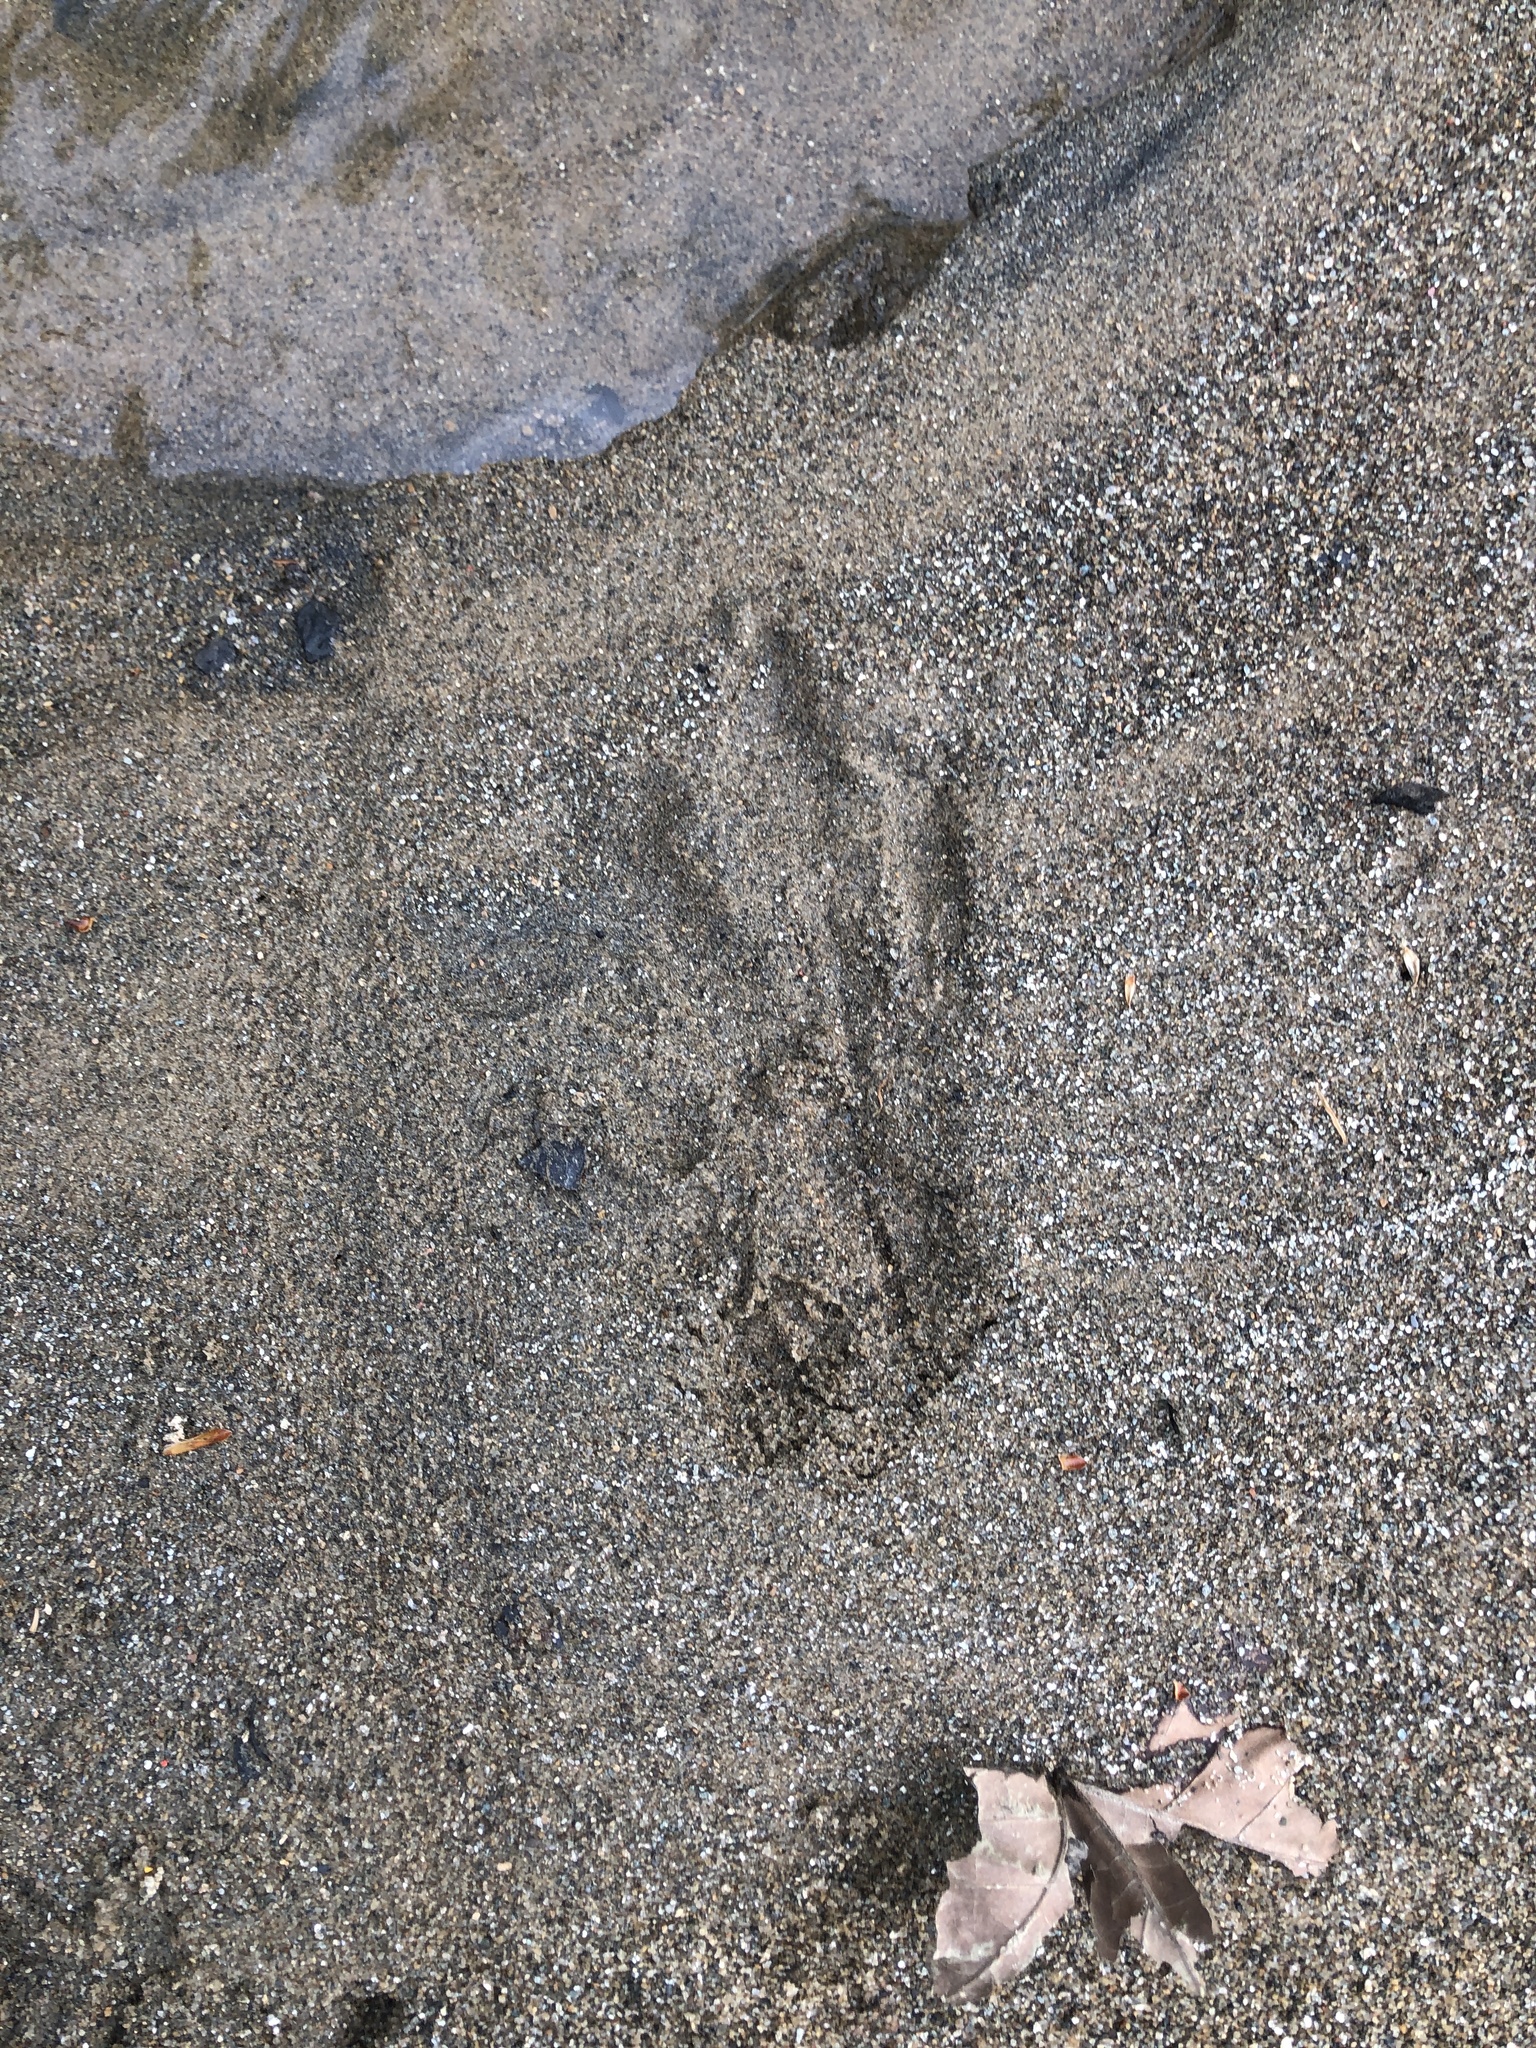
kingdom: Animalia
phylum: Chordata
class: Mammalia
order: Rodentia
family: Castoridae
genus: Castor
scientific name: Castor canadensis
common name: American beaver
